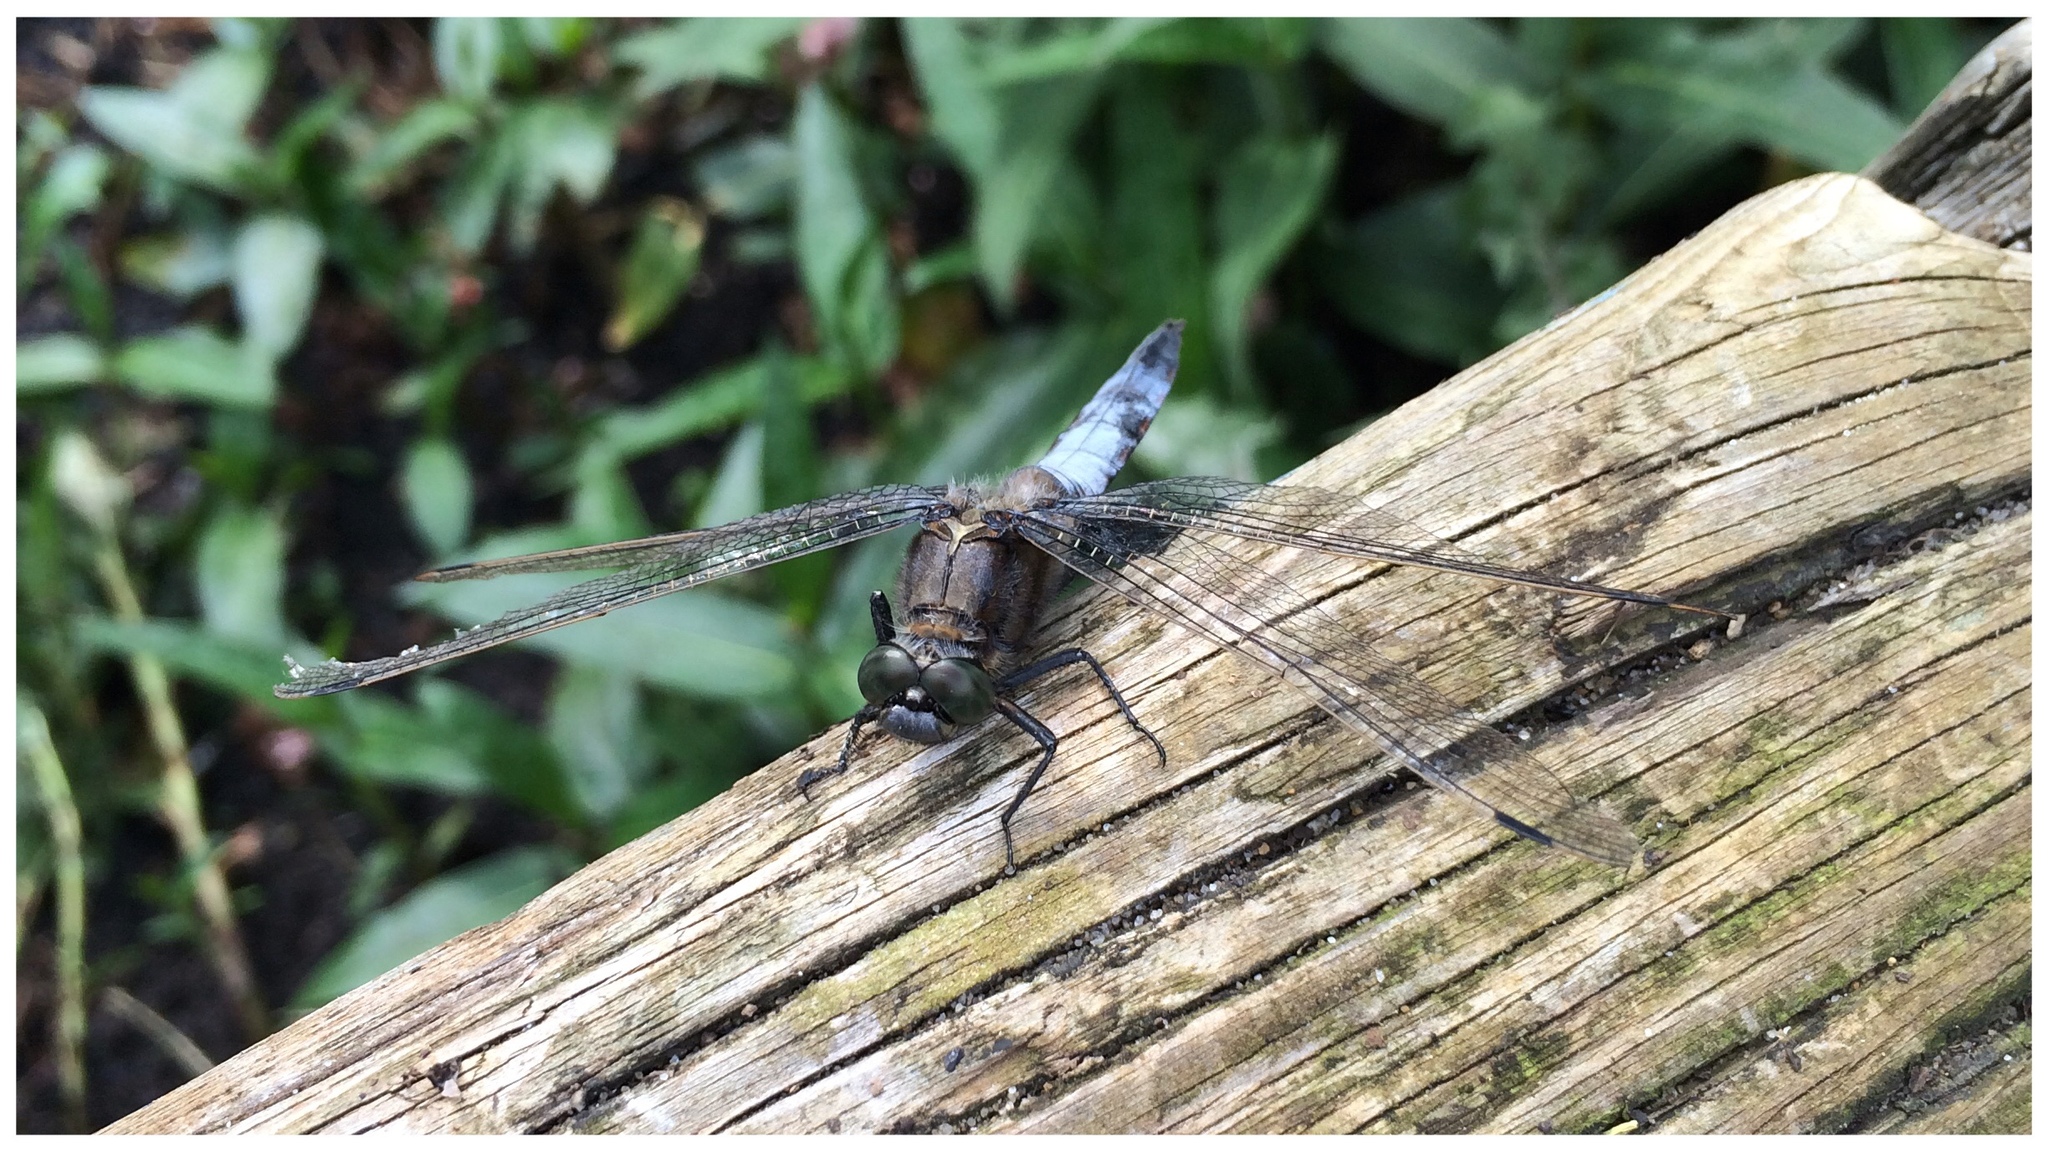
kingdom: Animalia
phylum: Arthropoda
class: Insecta
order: Odonata
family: Libellulidae
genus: Orthetrum
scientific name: Orthetrum cancellatum
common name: Black-tailed skimmer
